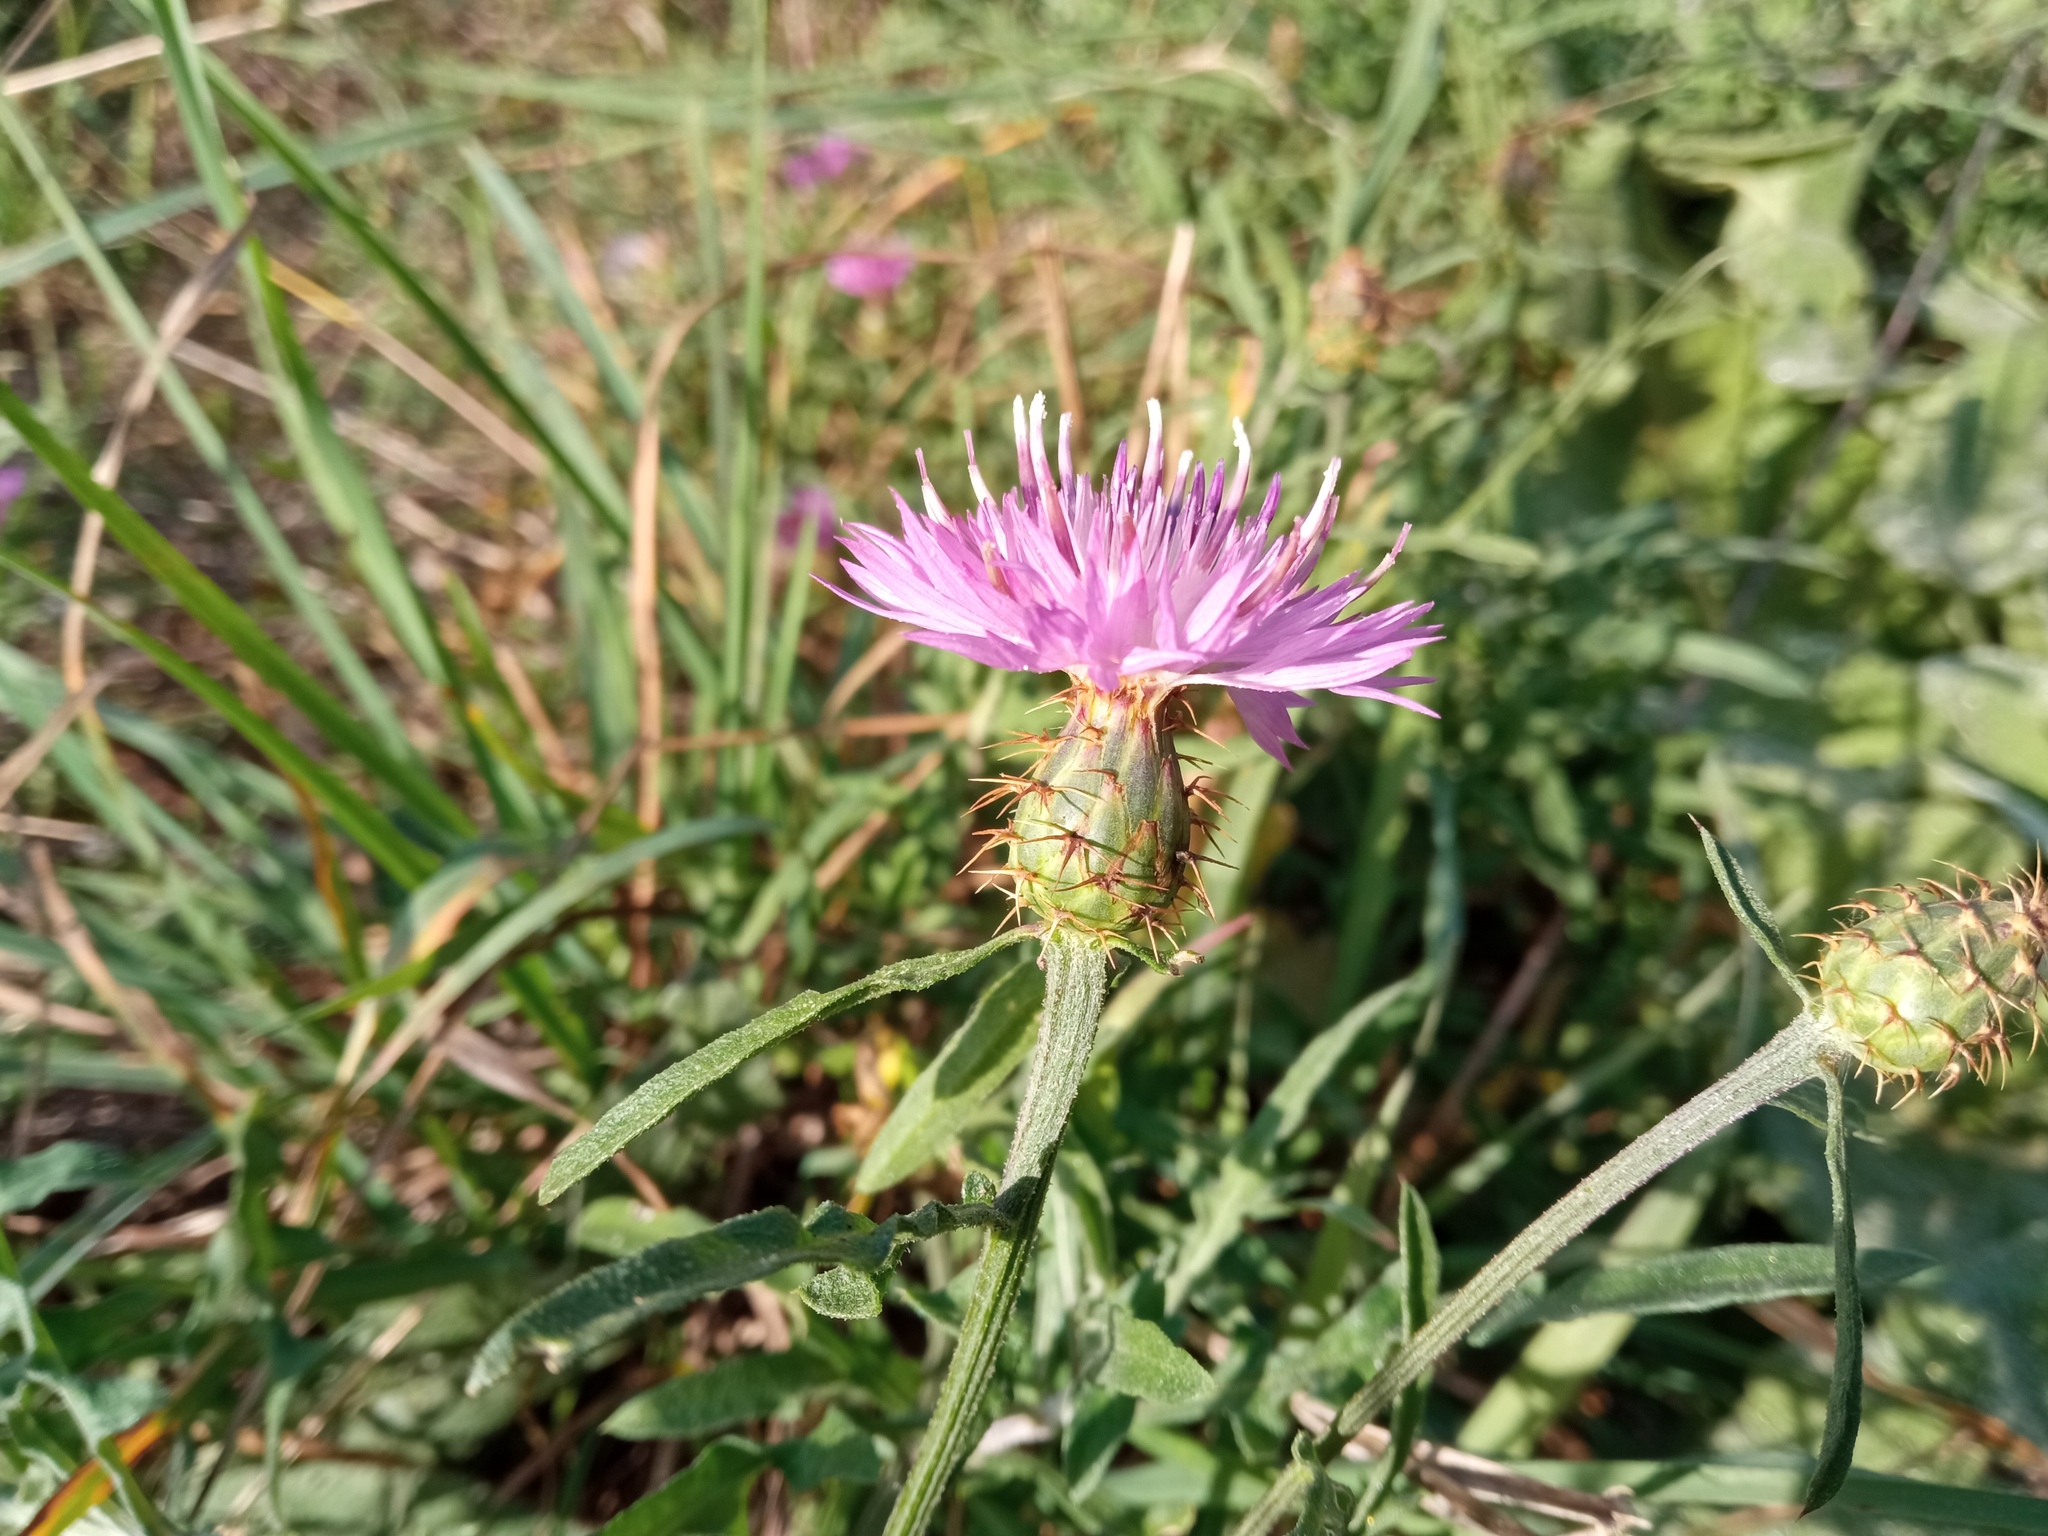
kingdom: Plantae
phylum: Tracheophyta
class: Magnoliopsida
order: Asterales
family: Asteraceae
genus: Centaurea
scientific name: Centaurea aspera
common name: Rough star-thistle
